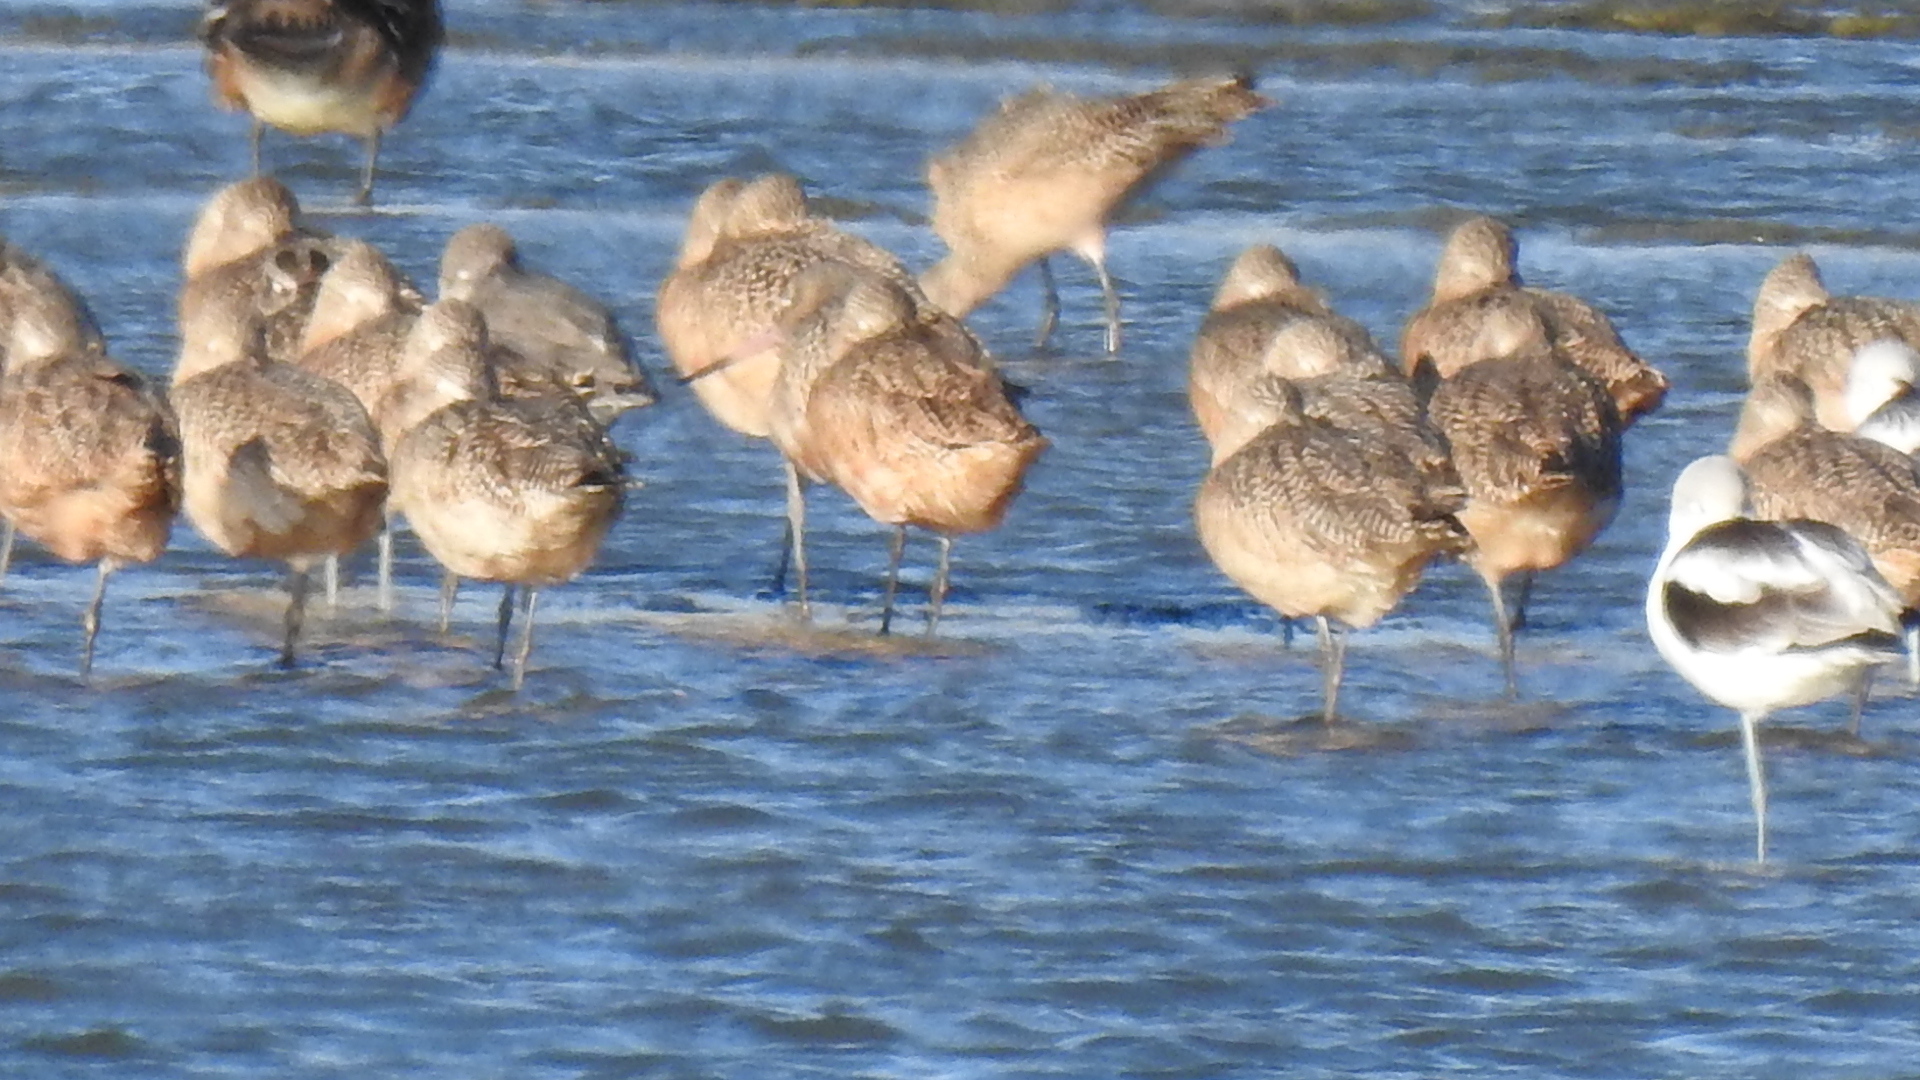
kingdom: Animalia
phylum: Chordata
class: Aves
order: Charadriiformes
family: Scolopacidae
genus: Limosa
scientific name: Limosa fedoa
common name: Marbled godwit
